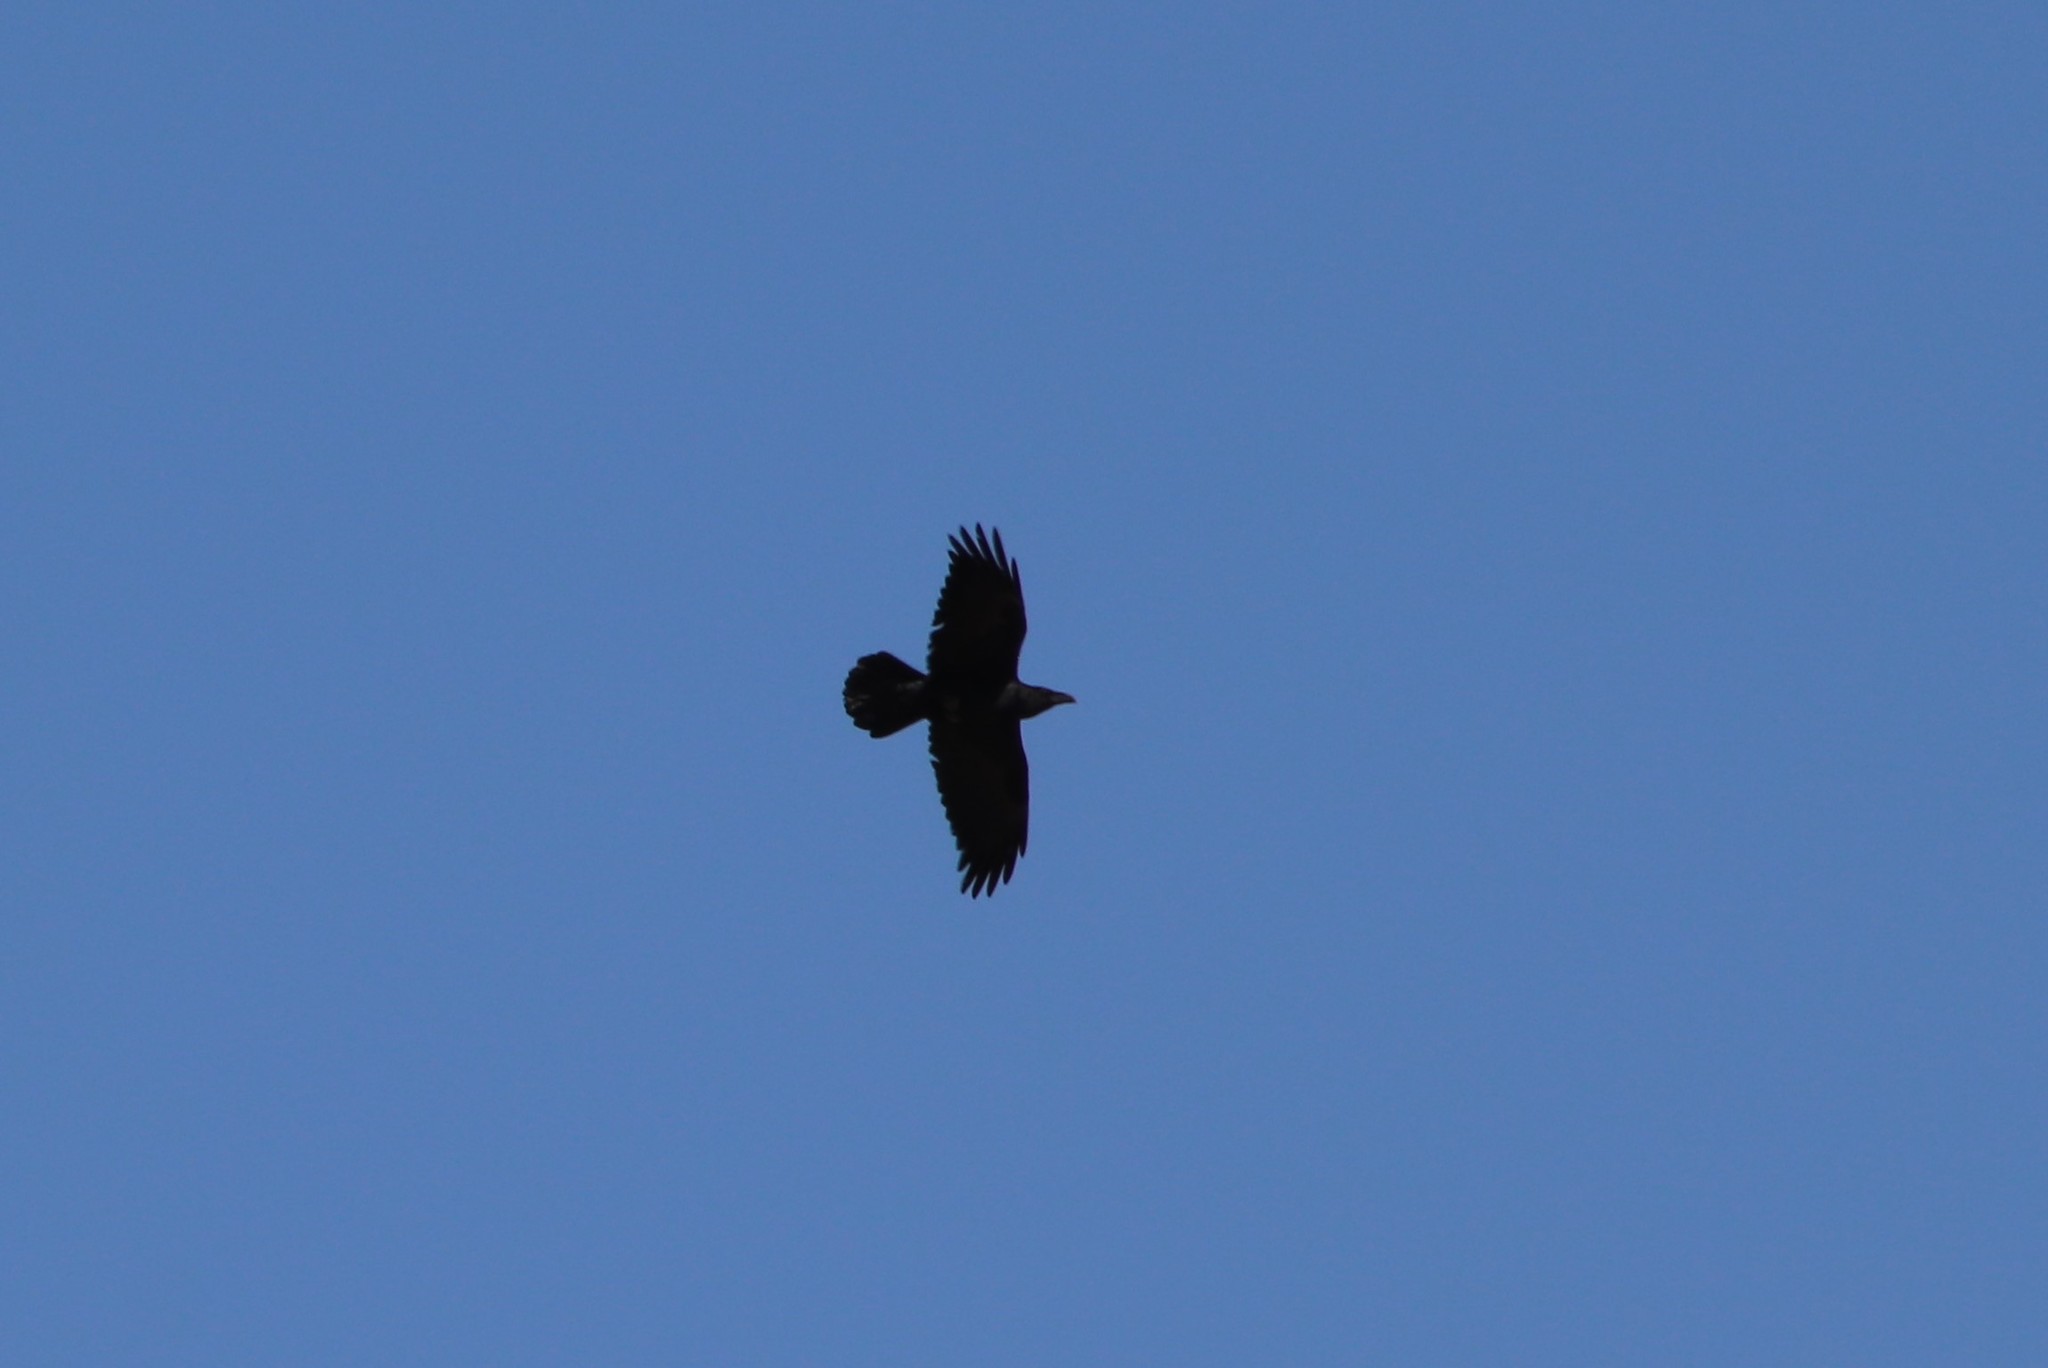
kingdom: Animalia
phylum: Chordata
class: Aves
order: Passeriformes
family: Corvidae
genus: Corvus
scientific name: Corvus corax
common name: Common raven
